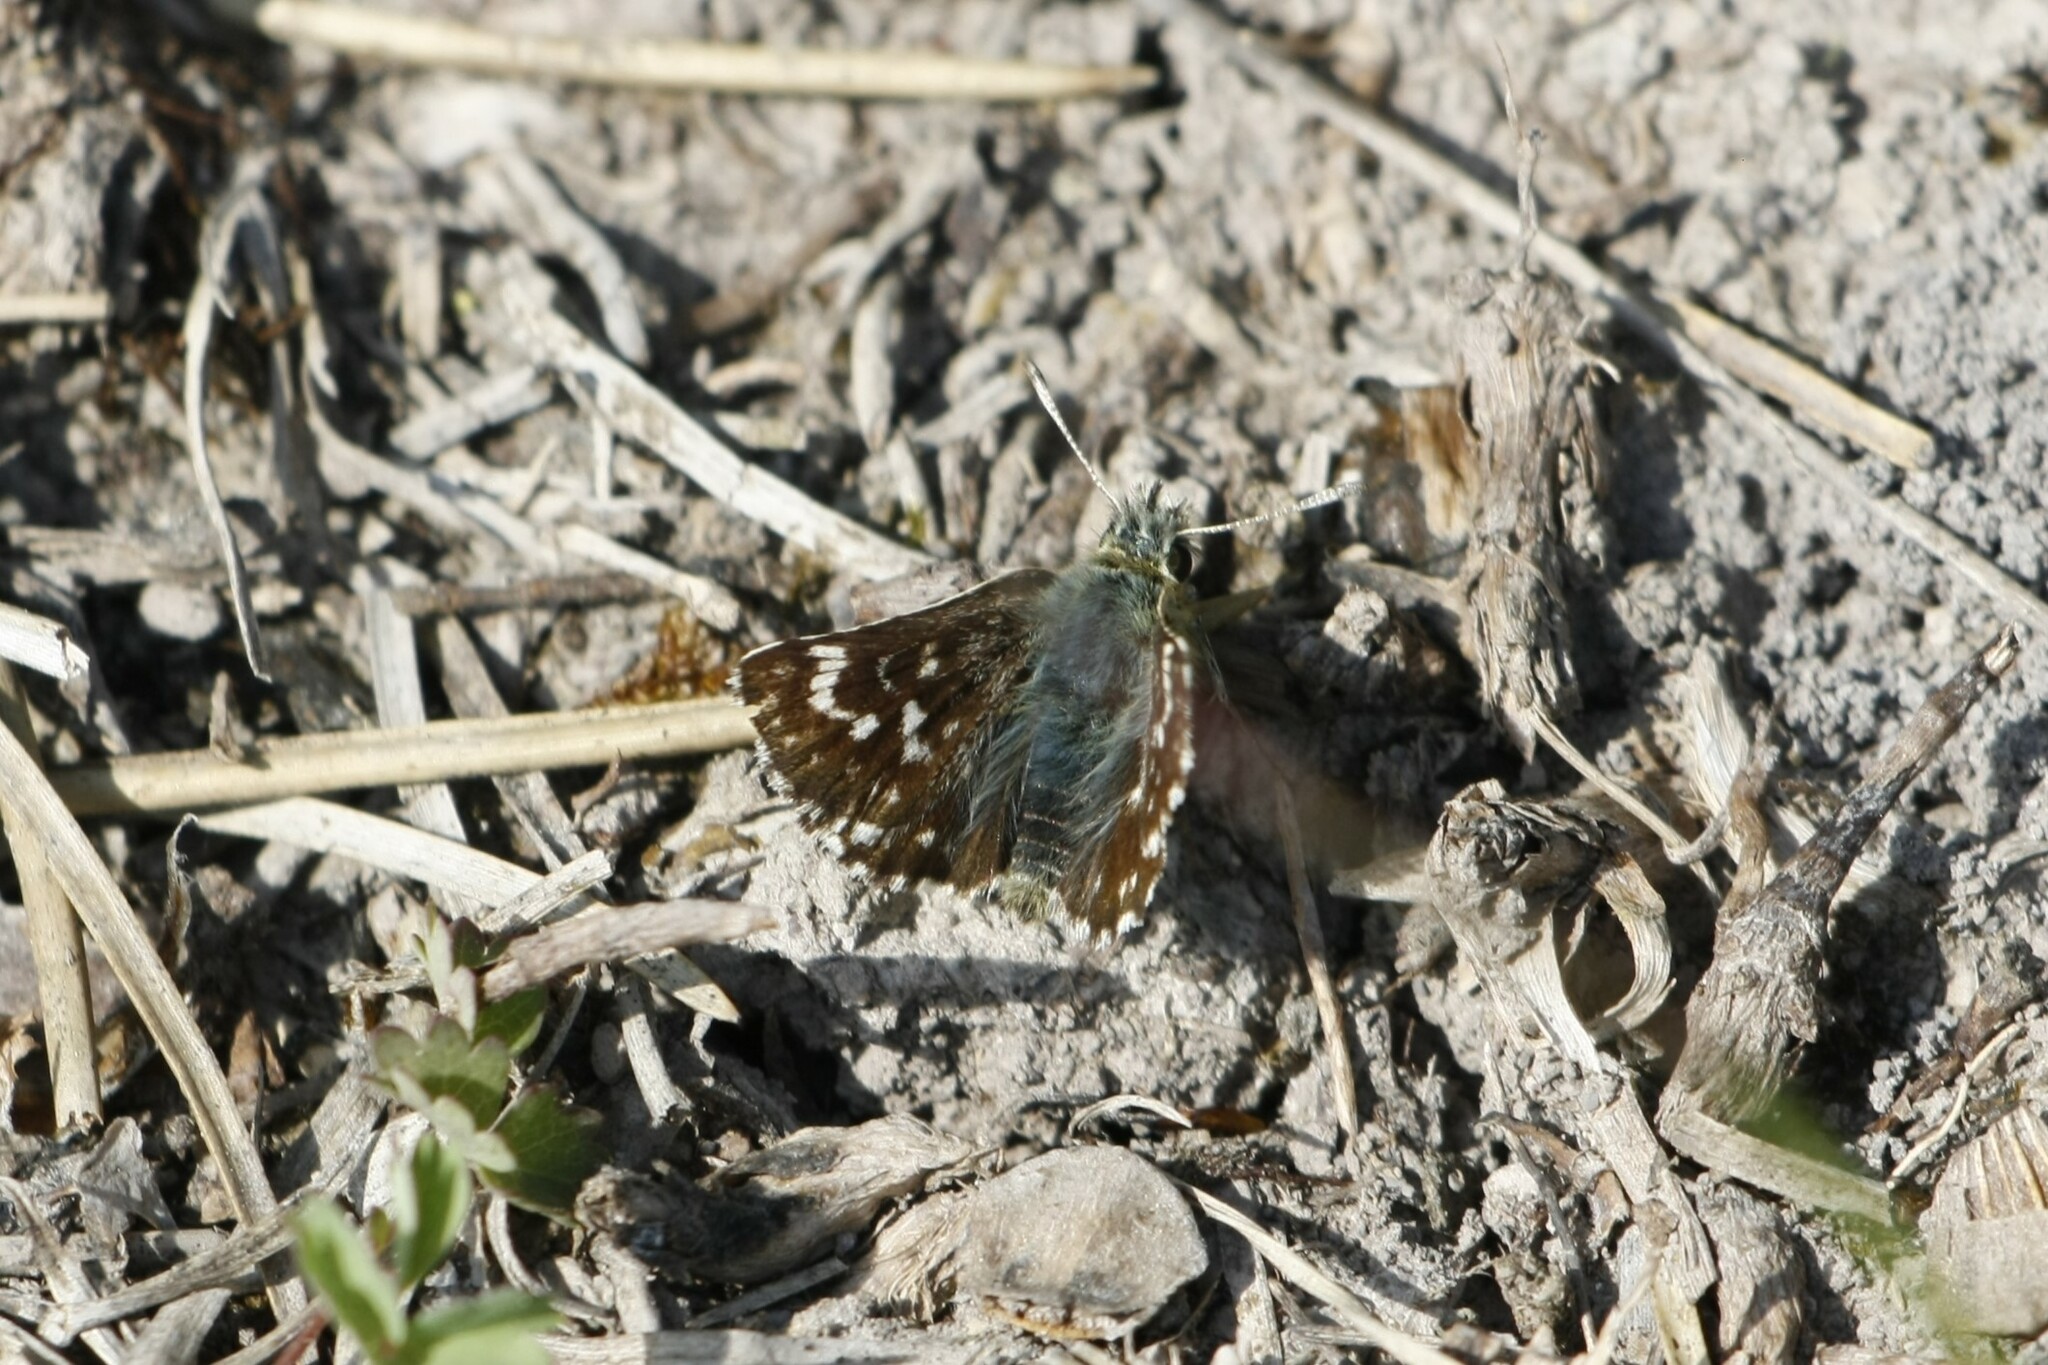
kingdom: Animalia
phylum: Arthropoda
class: Insecta
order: Lepidoptera
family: Hesperiidae
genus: Spialia
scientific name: Spialia sertorius
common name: Red underwing skipper
